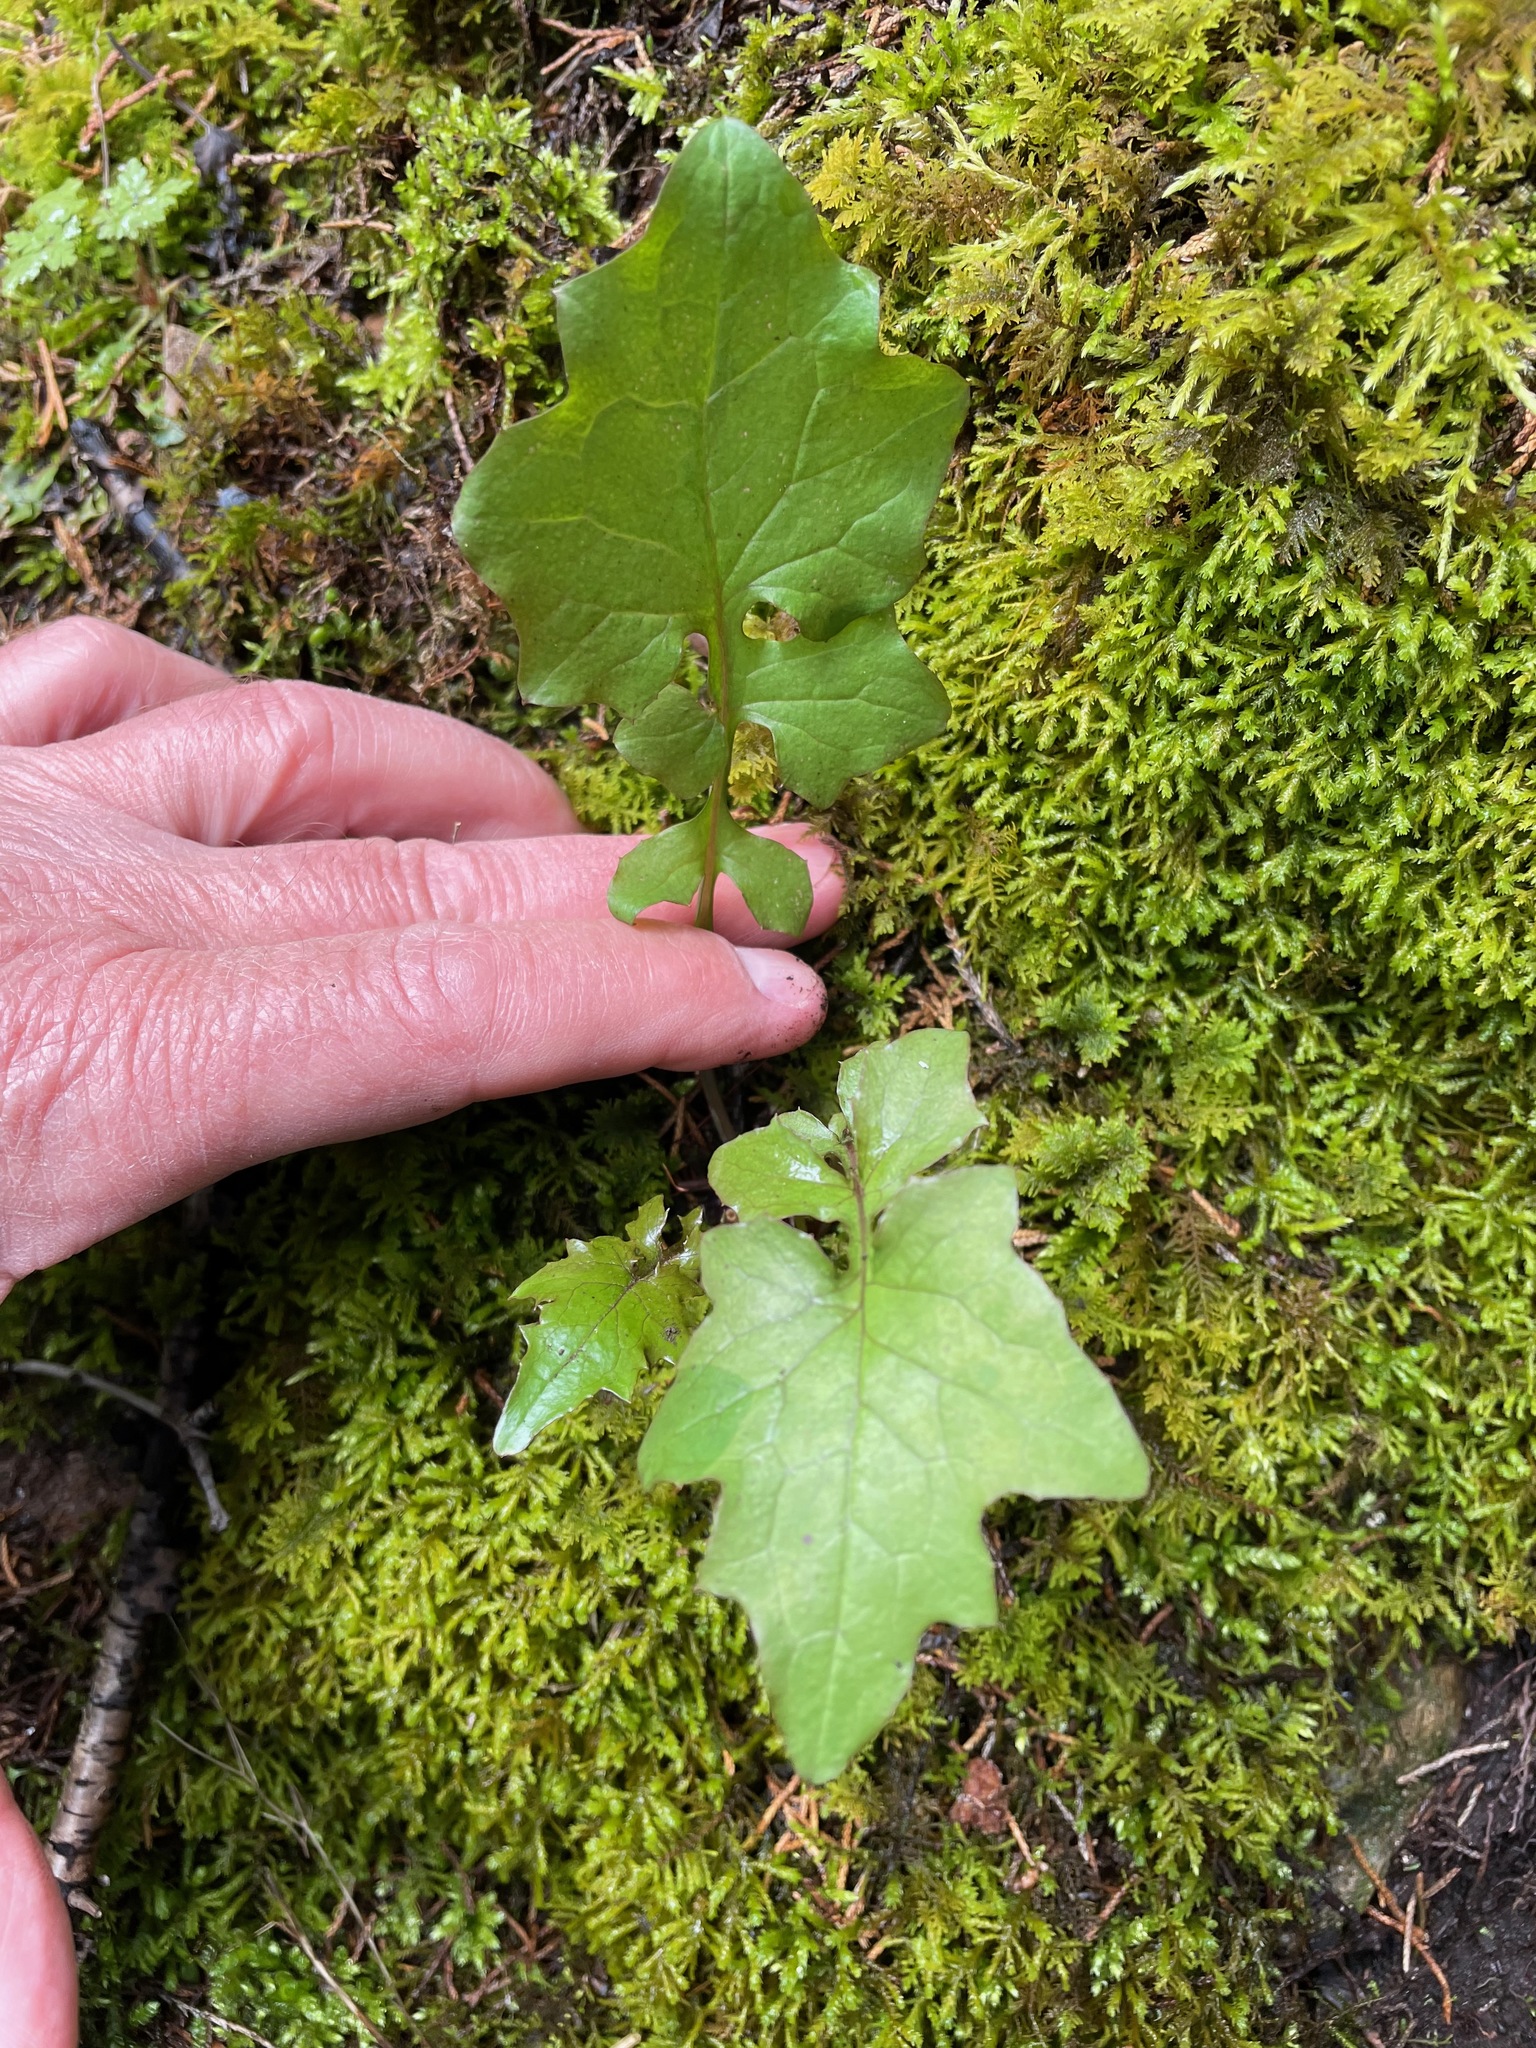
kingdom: Plantae
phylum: Tracheophyta
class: Magnoliopsida
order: Asterales
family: Asteraceae
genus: Mycelis
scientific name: Mycelis muralis
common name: Wall lettuce
